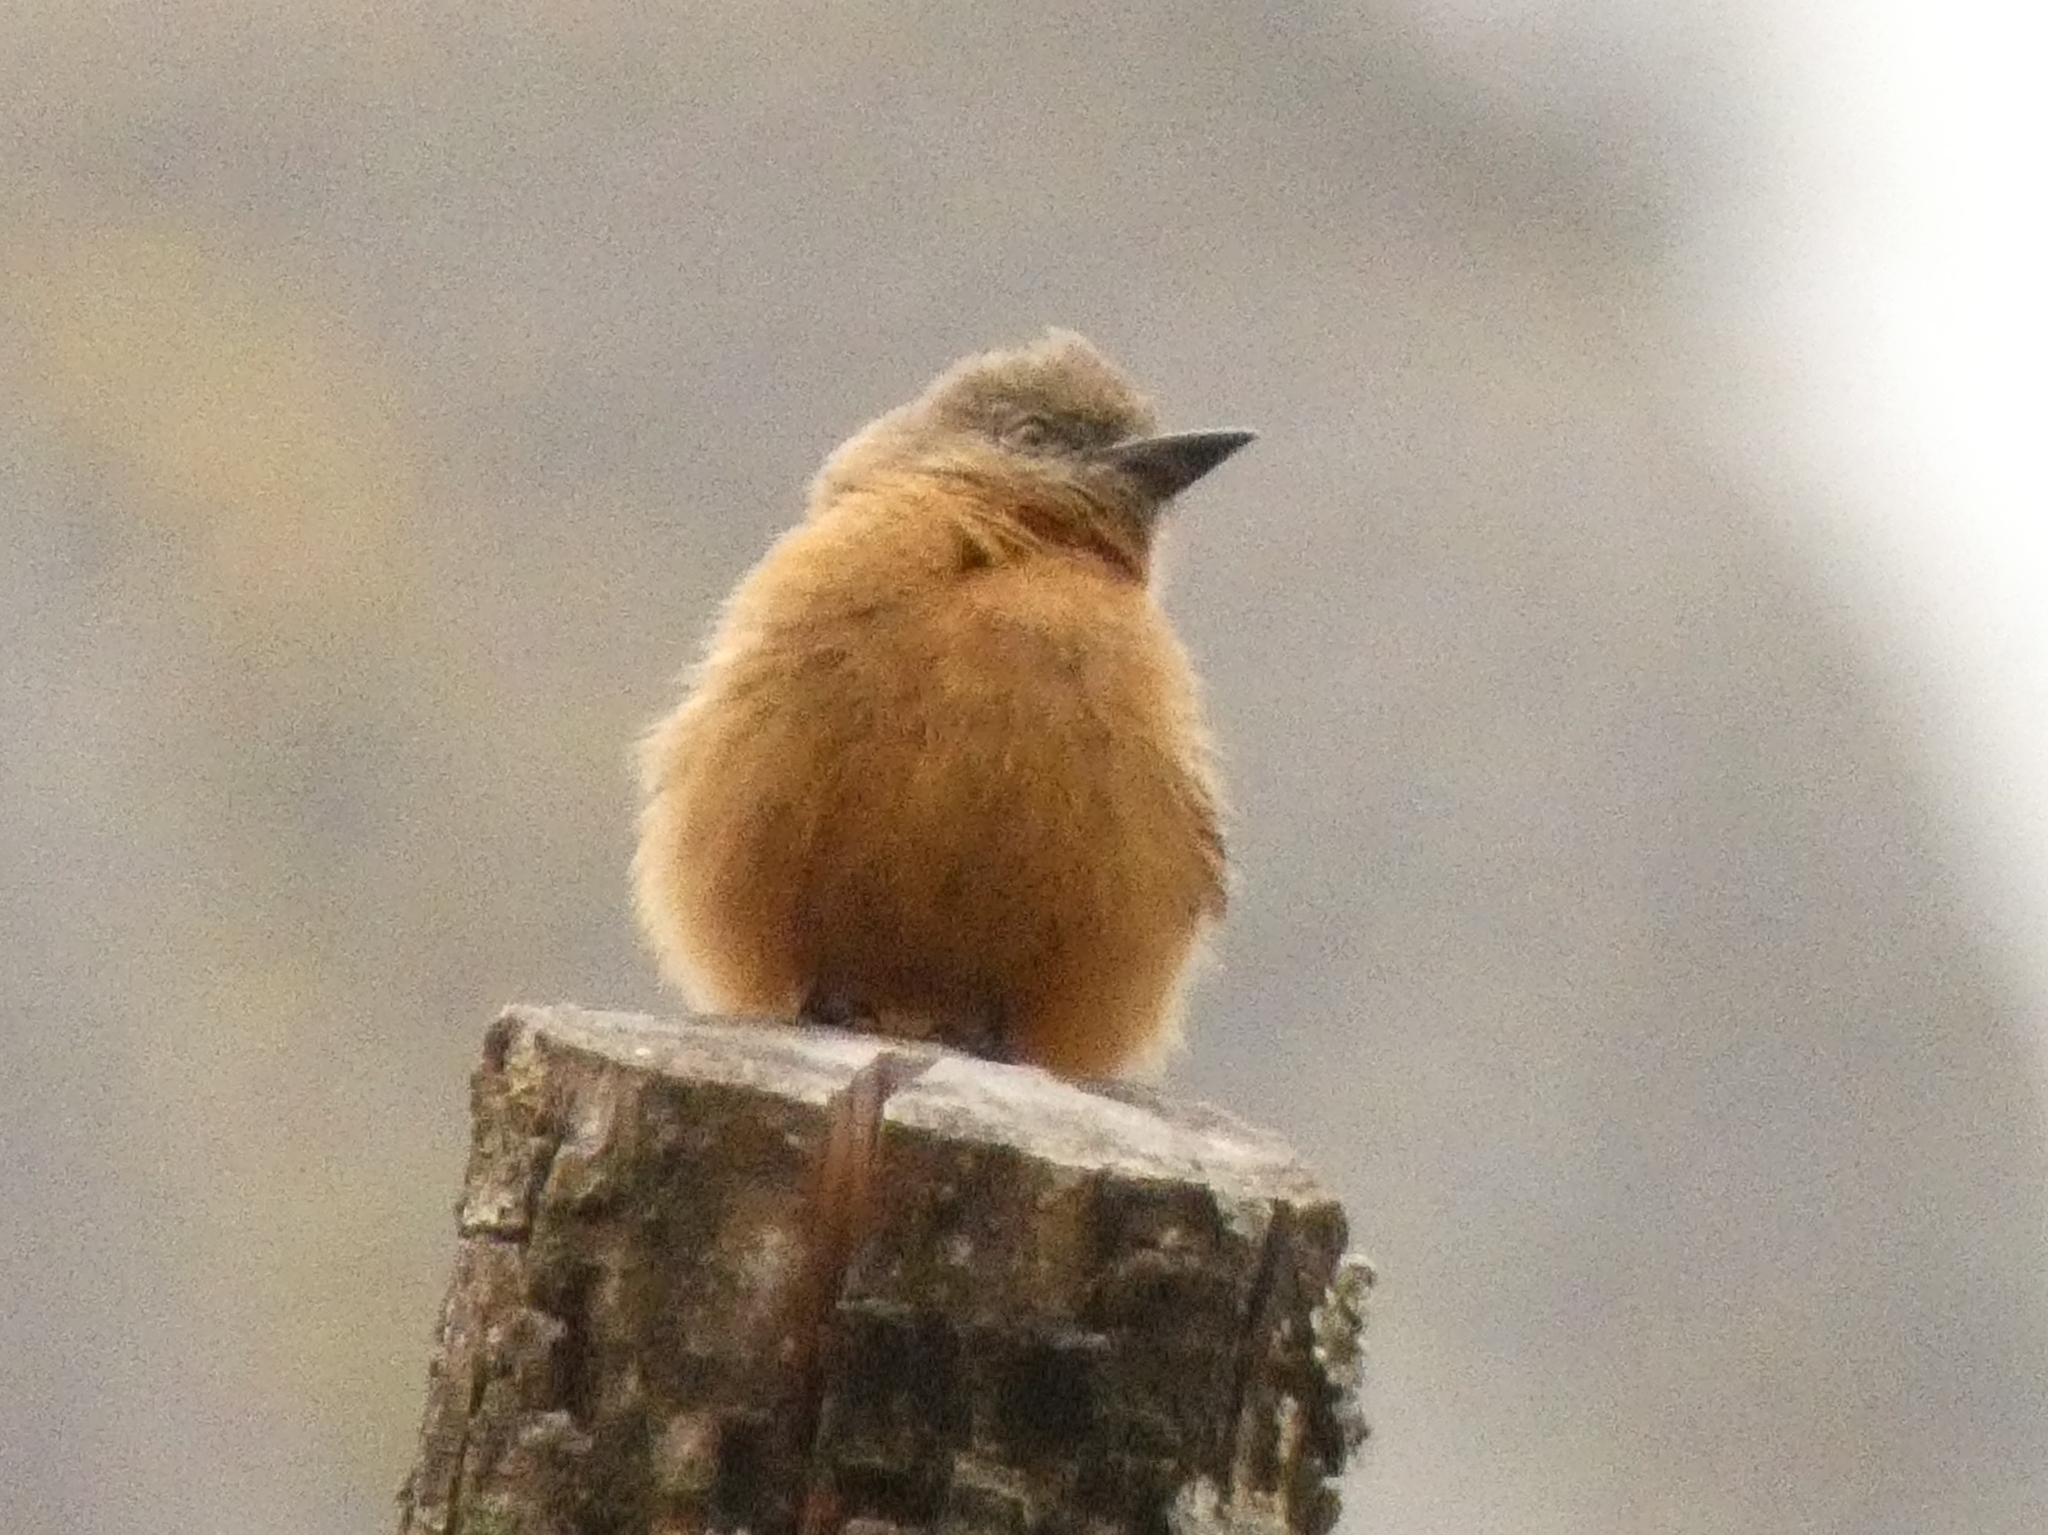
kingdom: Animalia
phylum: Chordata
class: Aves
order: Passeriformes
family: Tyrannidae
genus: Hirundinea
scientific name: Hirundinea ferruginea
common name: Cliff flycatcher
